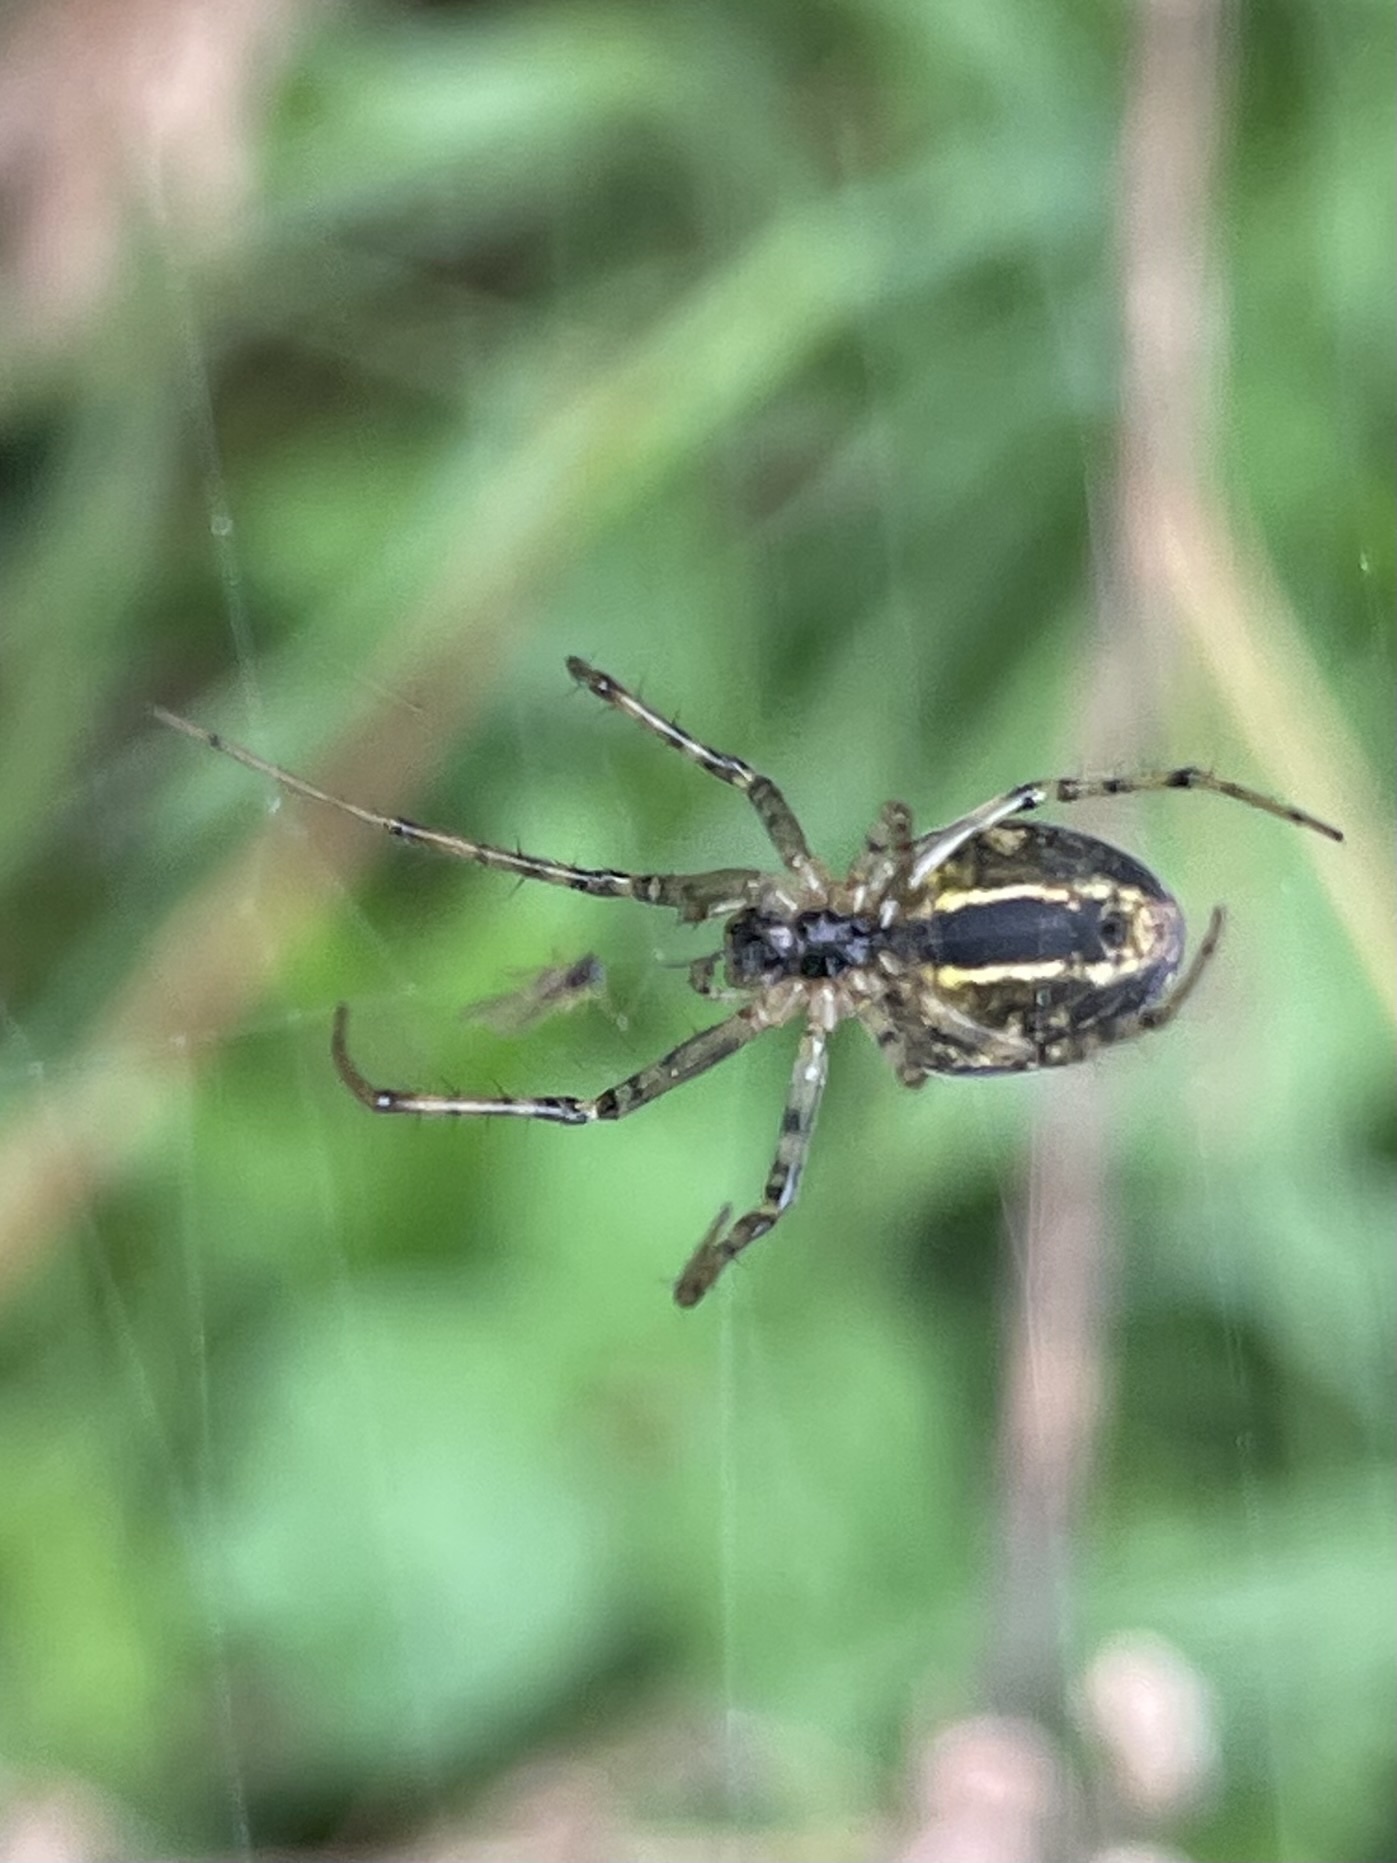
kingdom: Animalia
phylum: Arthropoda
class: Arachnida
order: Araneae
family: Tetragnathidae
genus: Metellina
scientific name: Metellina
